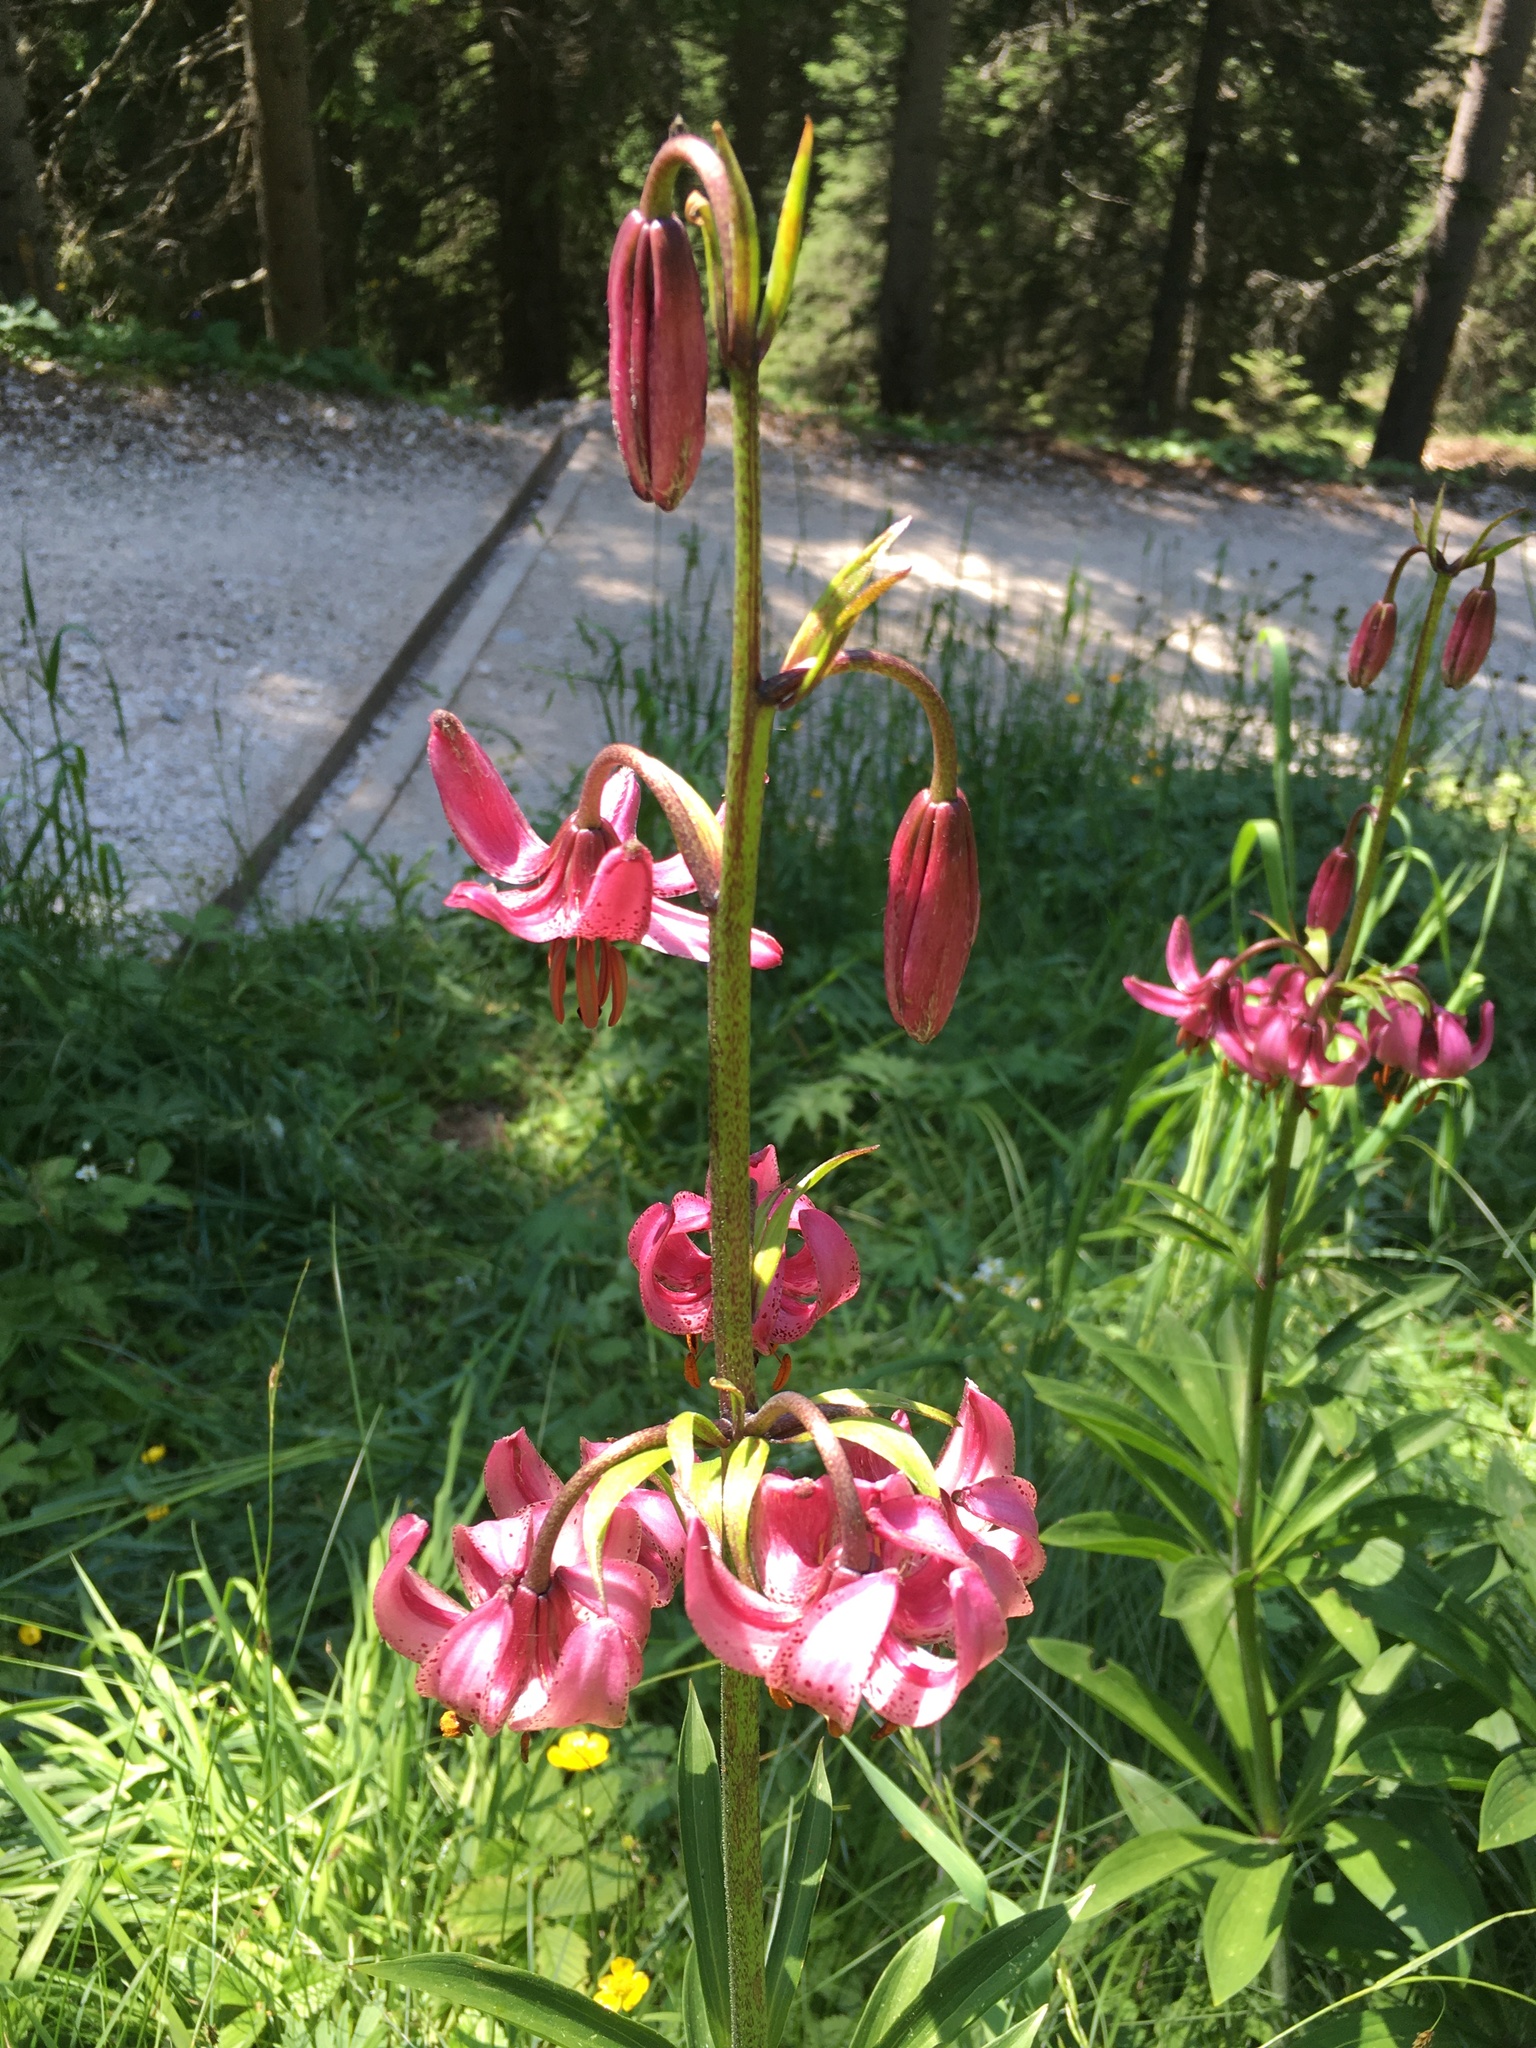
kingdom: Plantae
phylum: Tracheophyta
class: Liliopsida
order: Liliales
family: Liliaceae
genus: Lilium
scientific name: Lilium martagon
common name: Martagon lily
